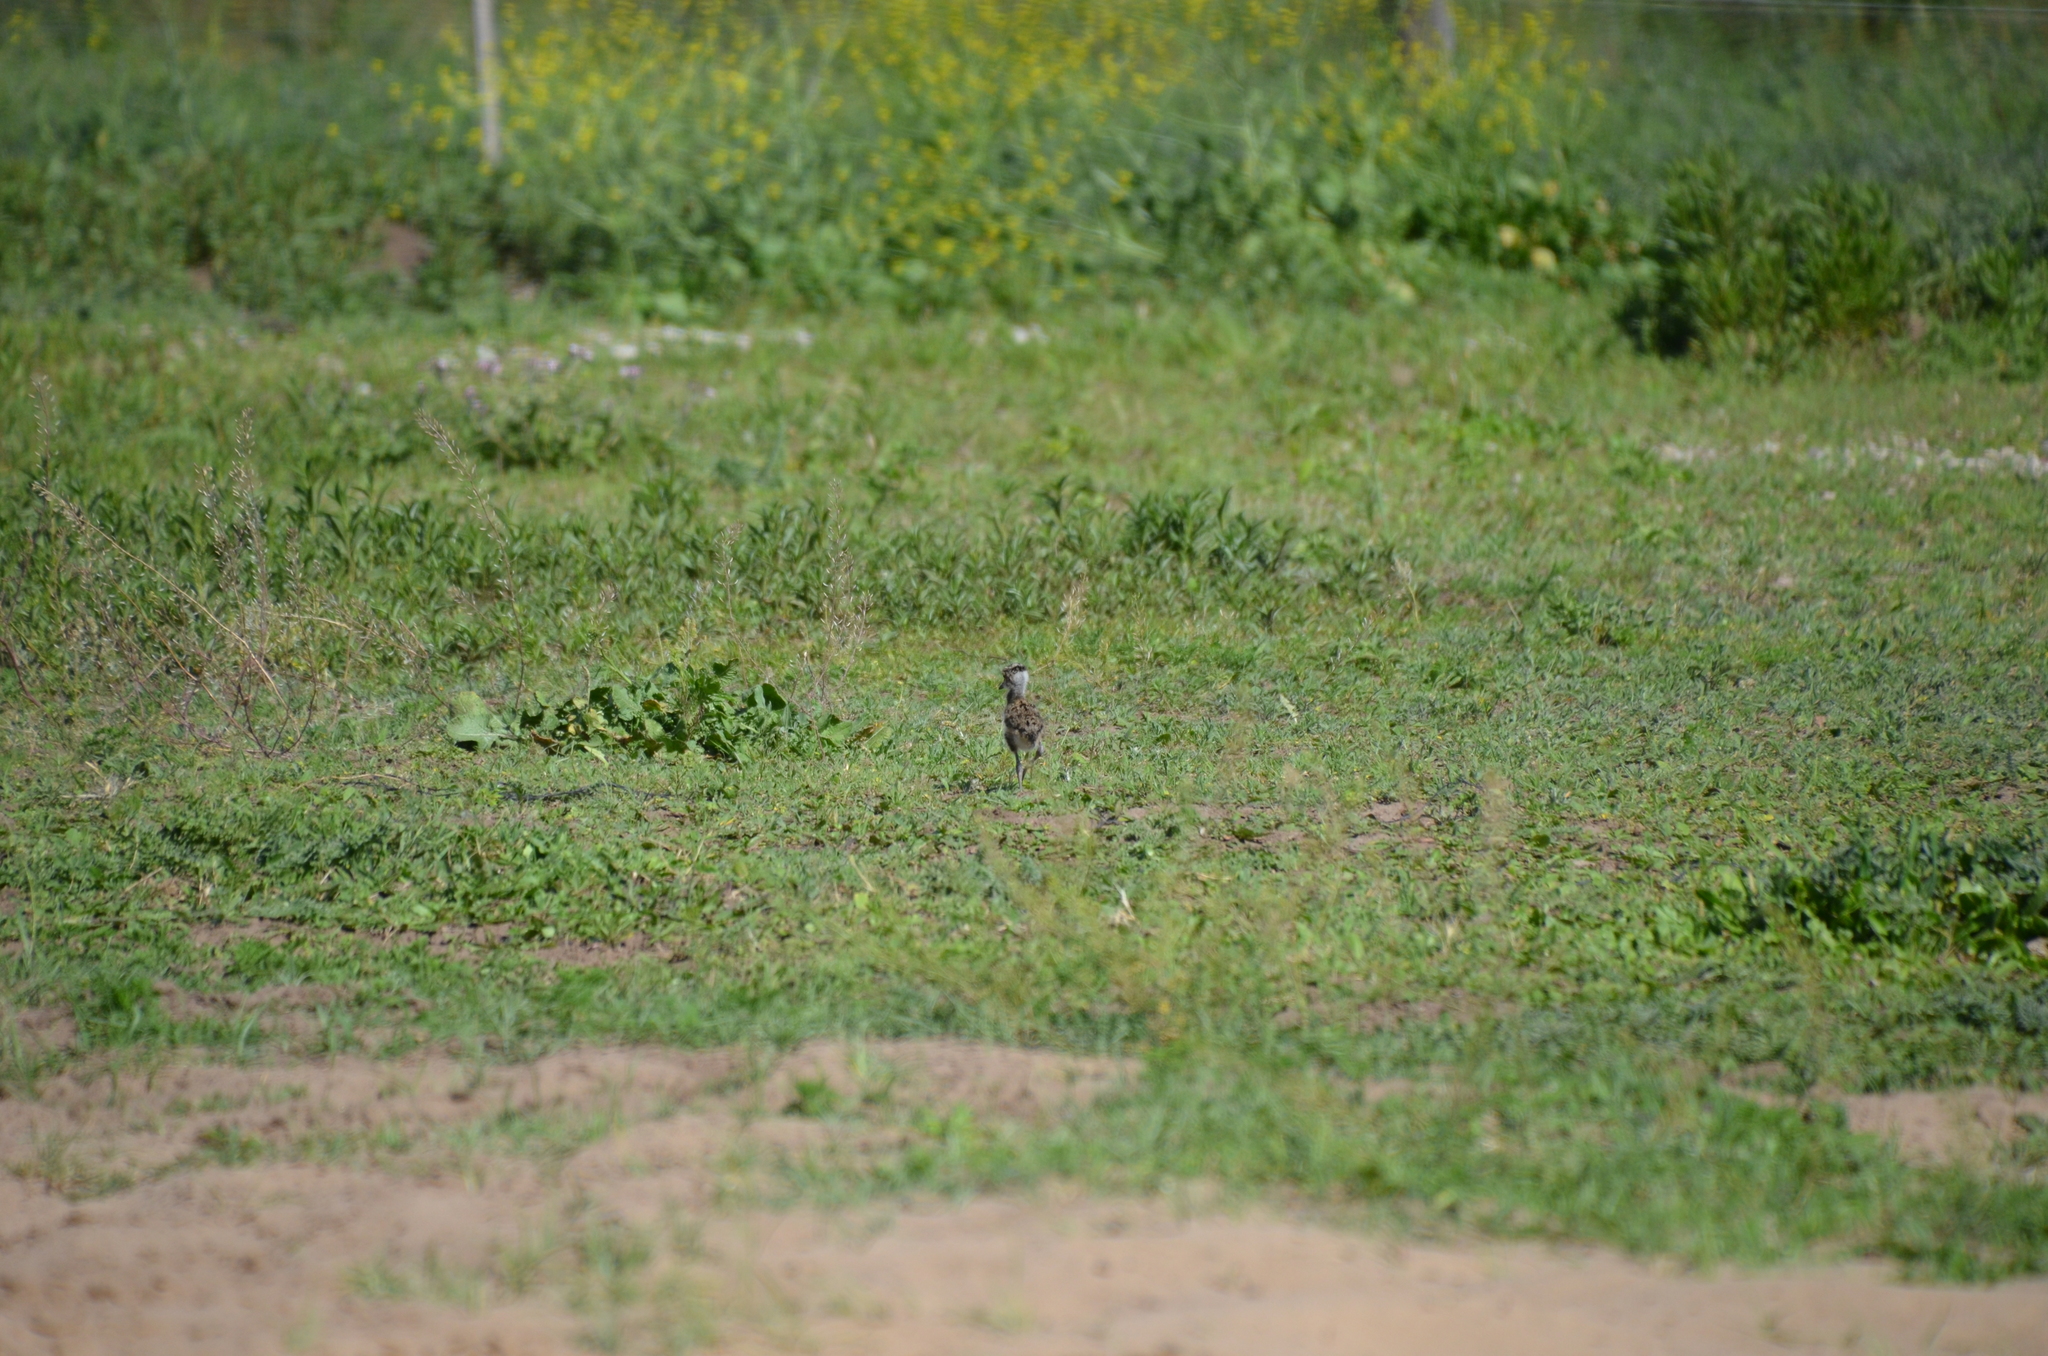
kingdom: Animalia
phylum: Chordata
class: Aves
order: Charadriiformes
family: Charadriidae
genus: Vanellus
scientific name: Vanellus chilensis
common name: Southern lapwing
